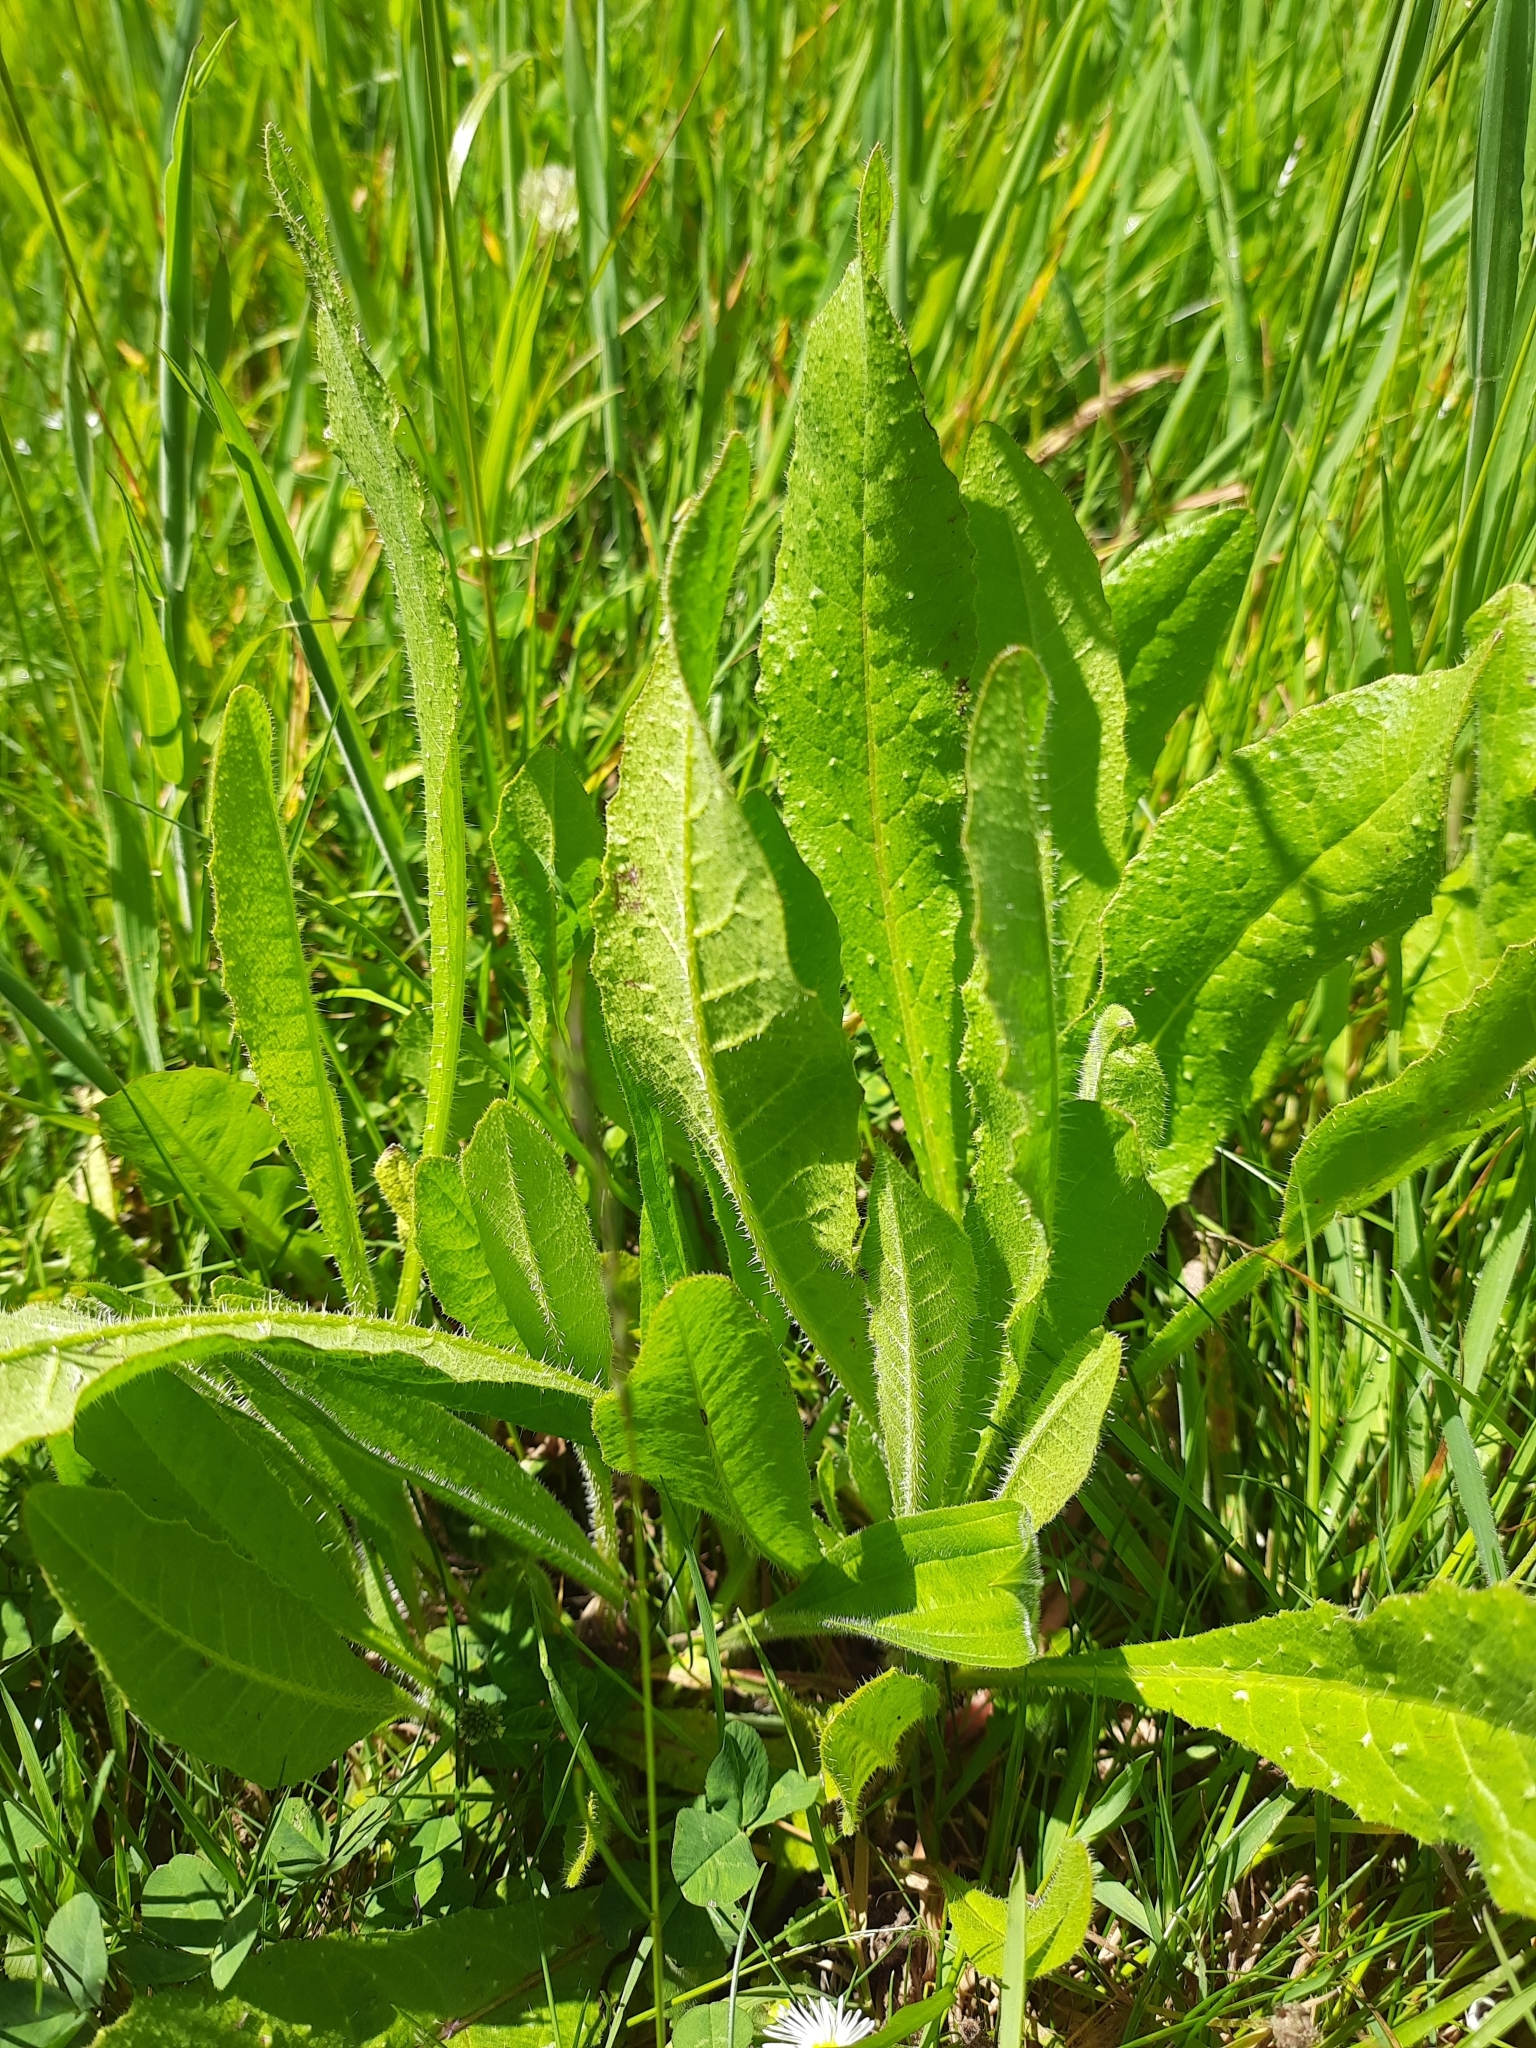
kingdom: Plantae
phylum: Tracheophyta
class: Magnoliopsida
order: Asterales
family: Asteraceae
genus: Helminthotheca
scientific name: Helminthotheca echioides
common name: Ox-tongue
